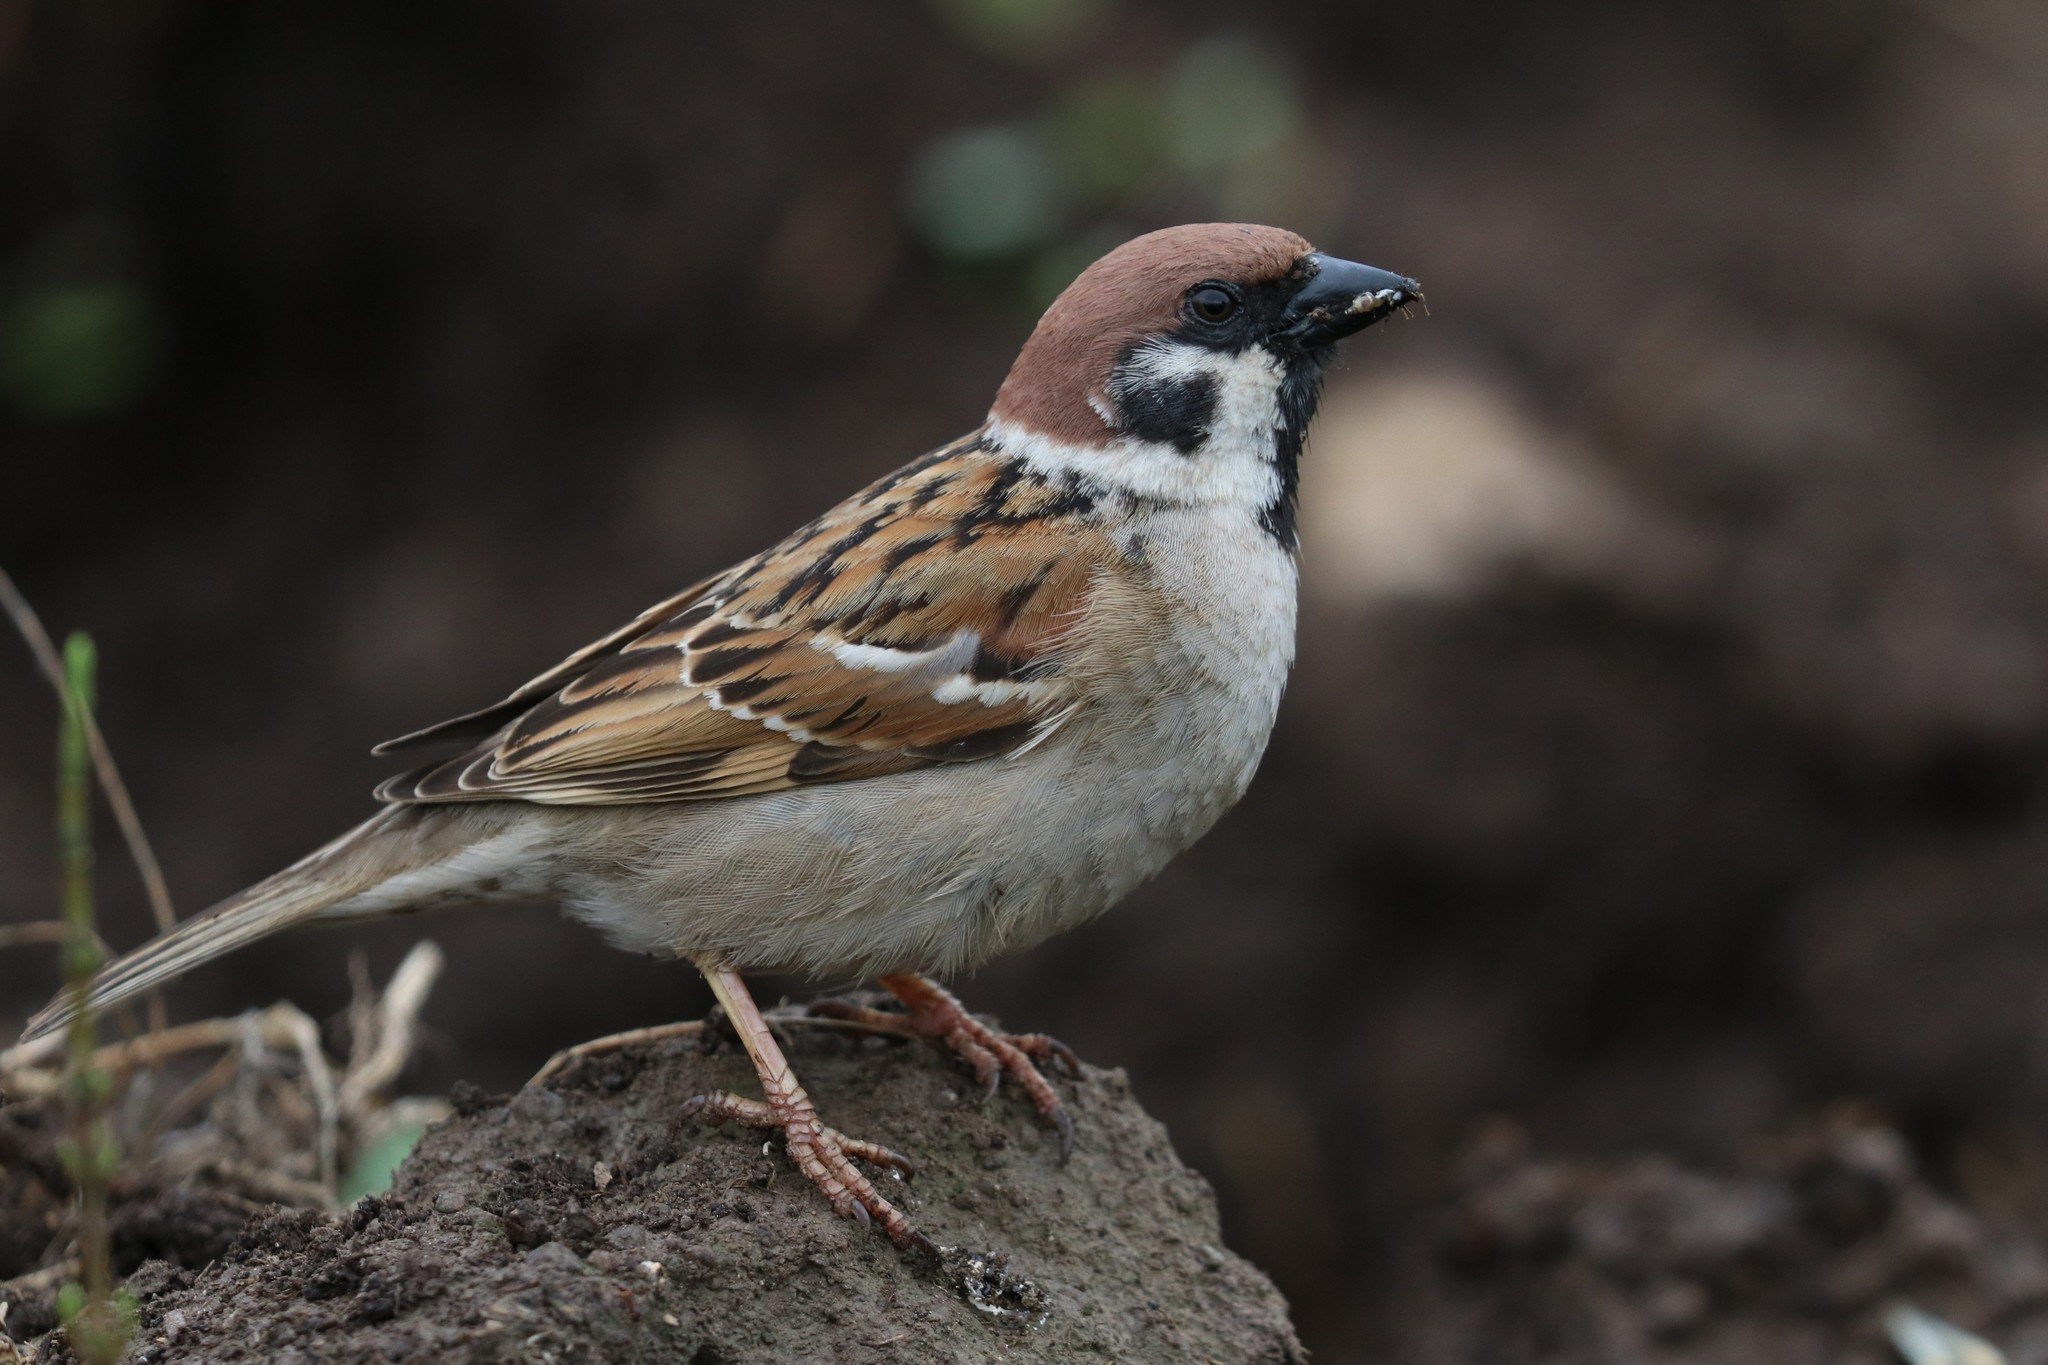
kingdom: Animalia
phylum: Chordata
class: Aves
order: Passeriformes
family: Passeridae
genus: Passer
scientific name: Passer montanus
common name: Eurasian tree sparrow
